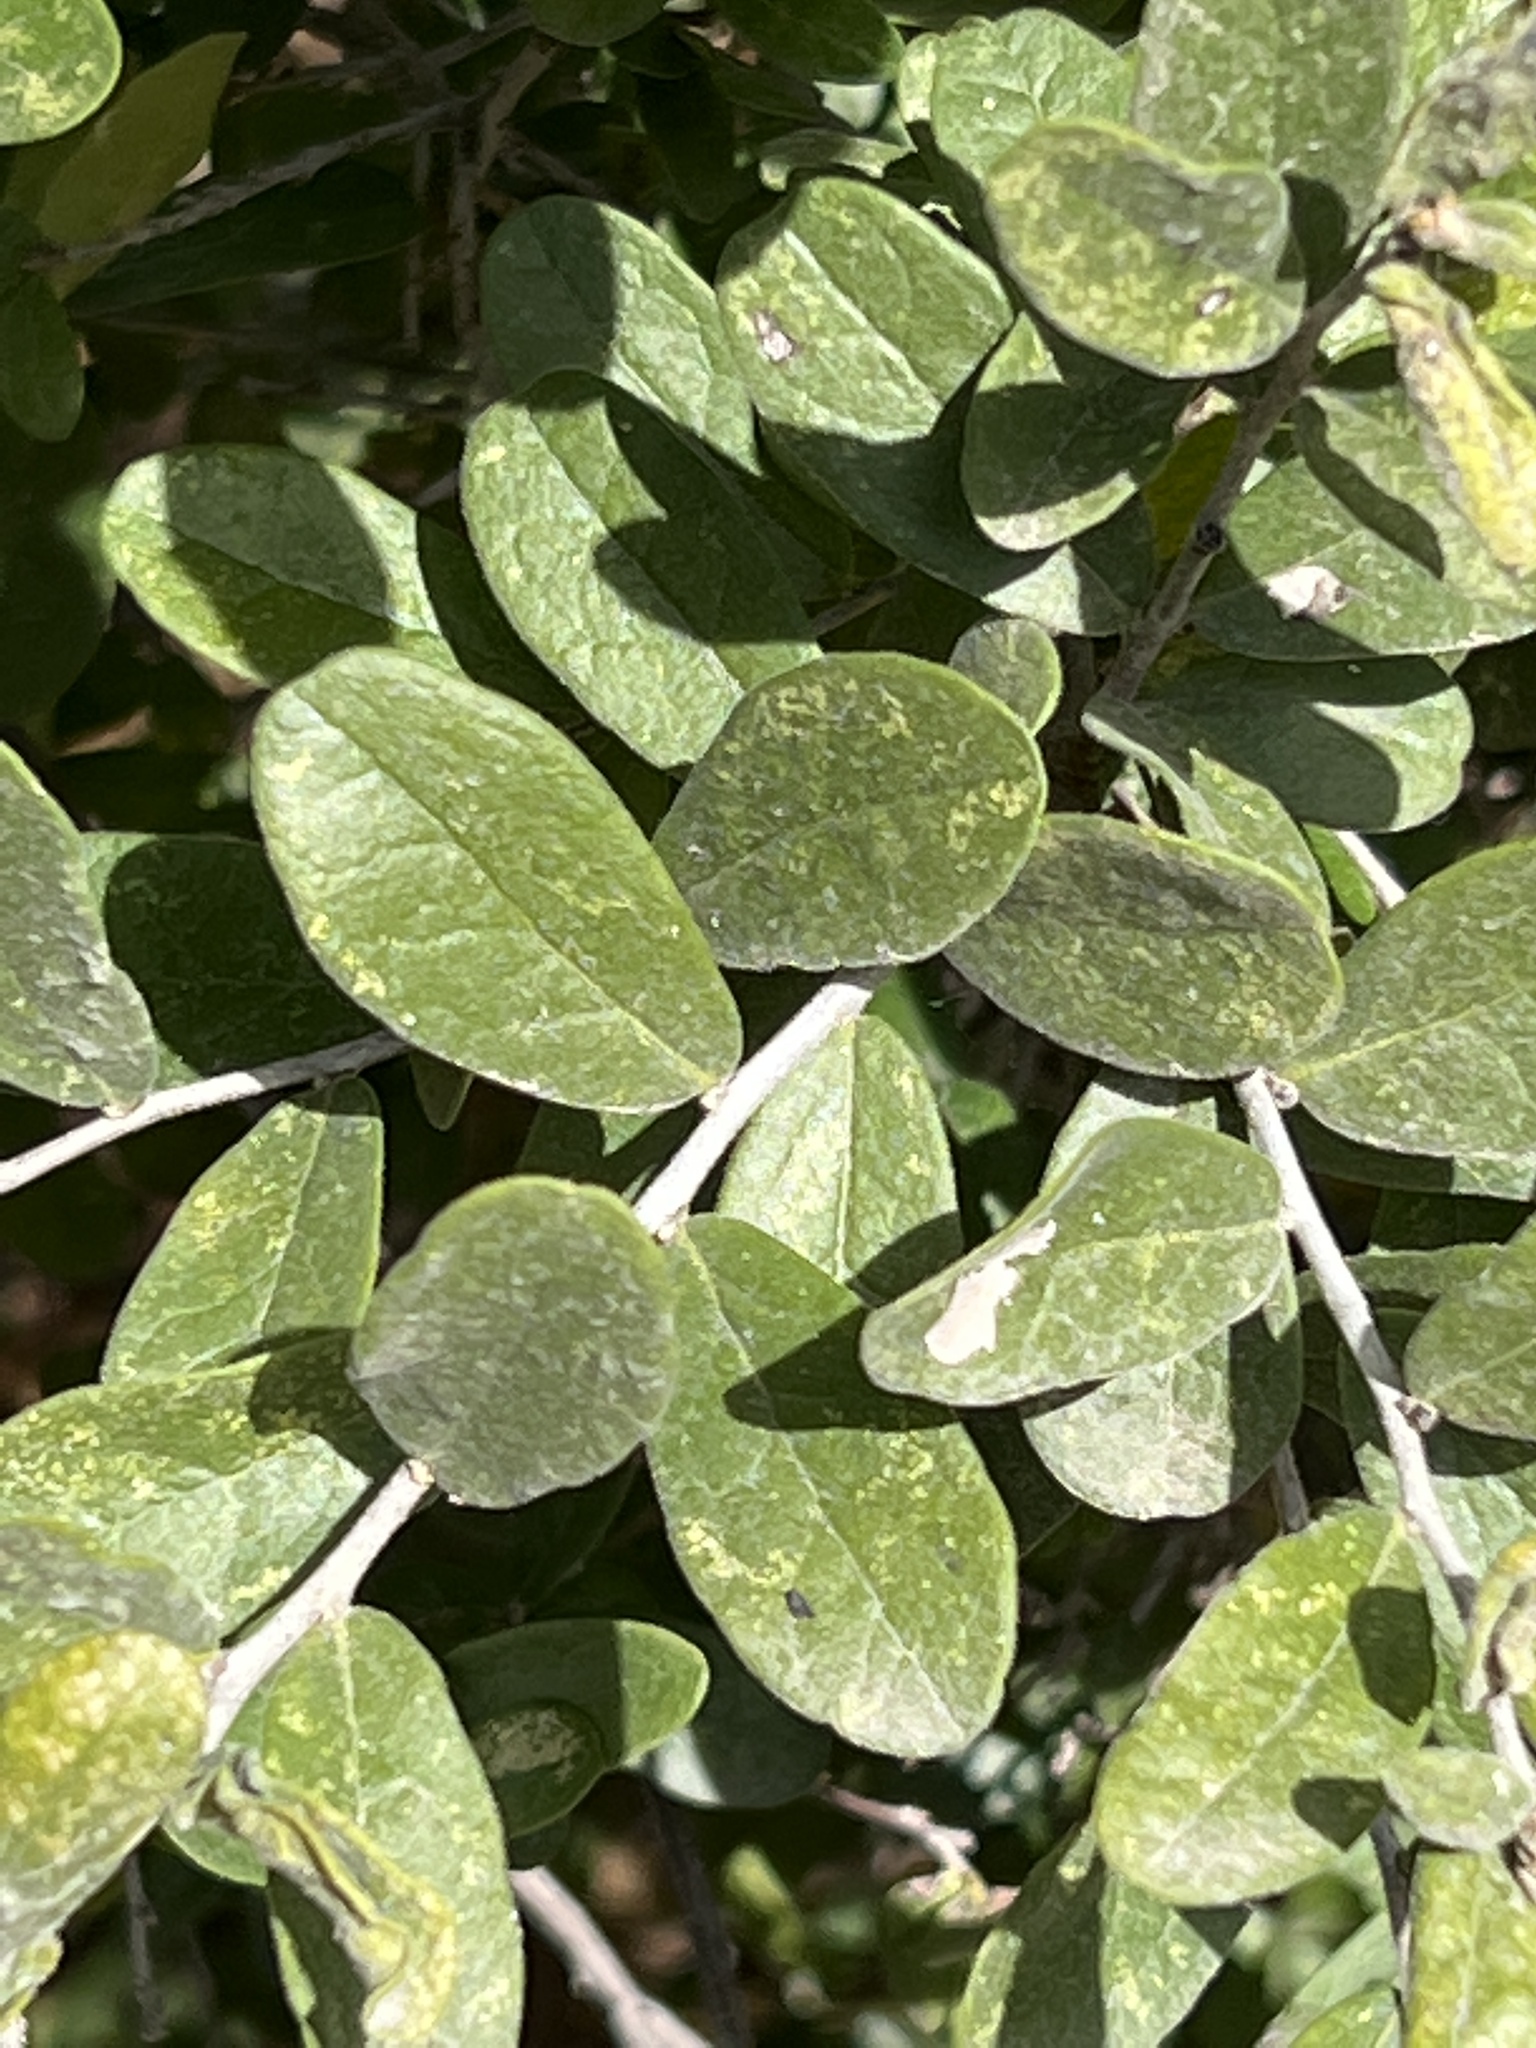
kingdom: Plantae
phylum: Tracheophyta
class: Magnoliopsida
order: Ericales
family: Ebenaceae
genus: Diospyros
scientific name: Diospyros texana
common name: Texas persimmon
